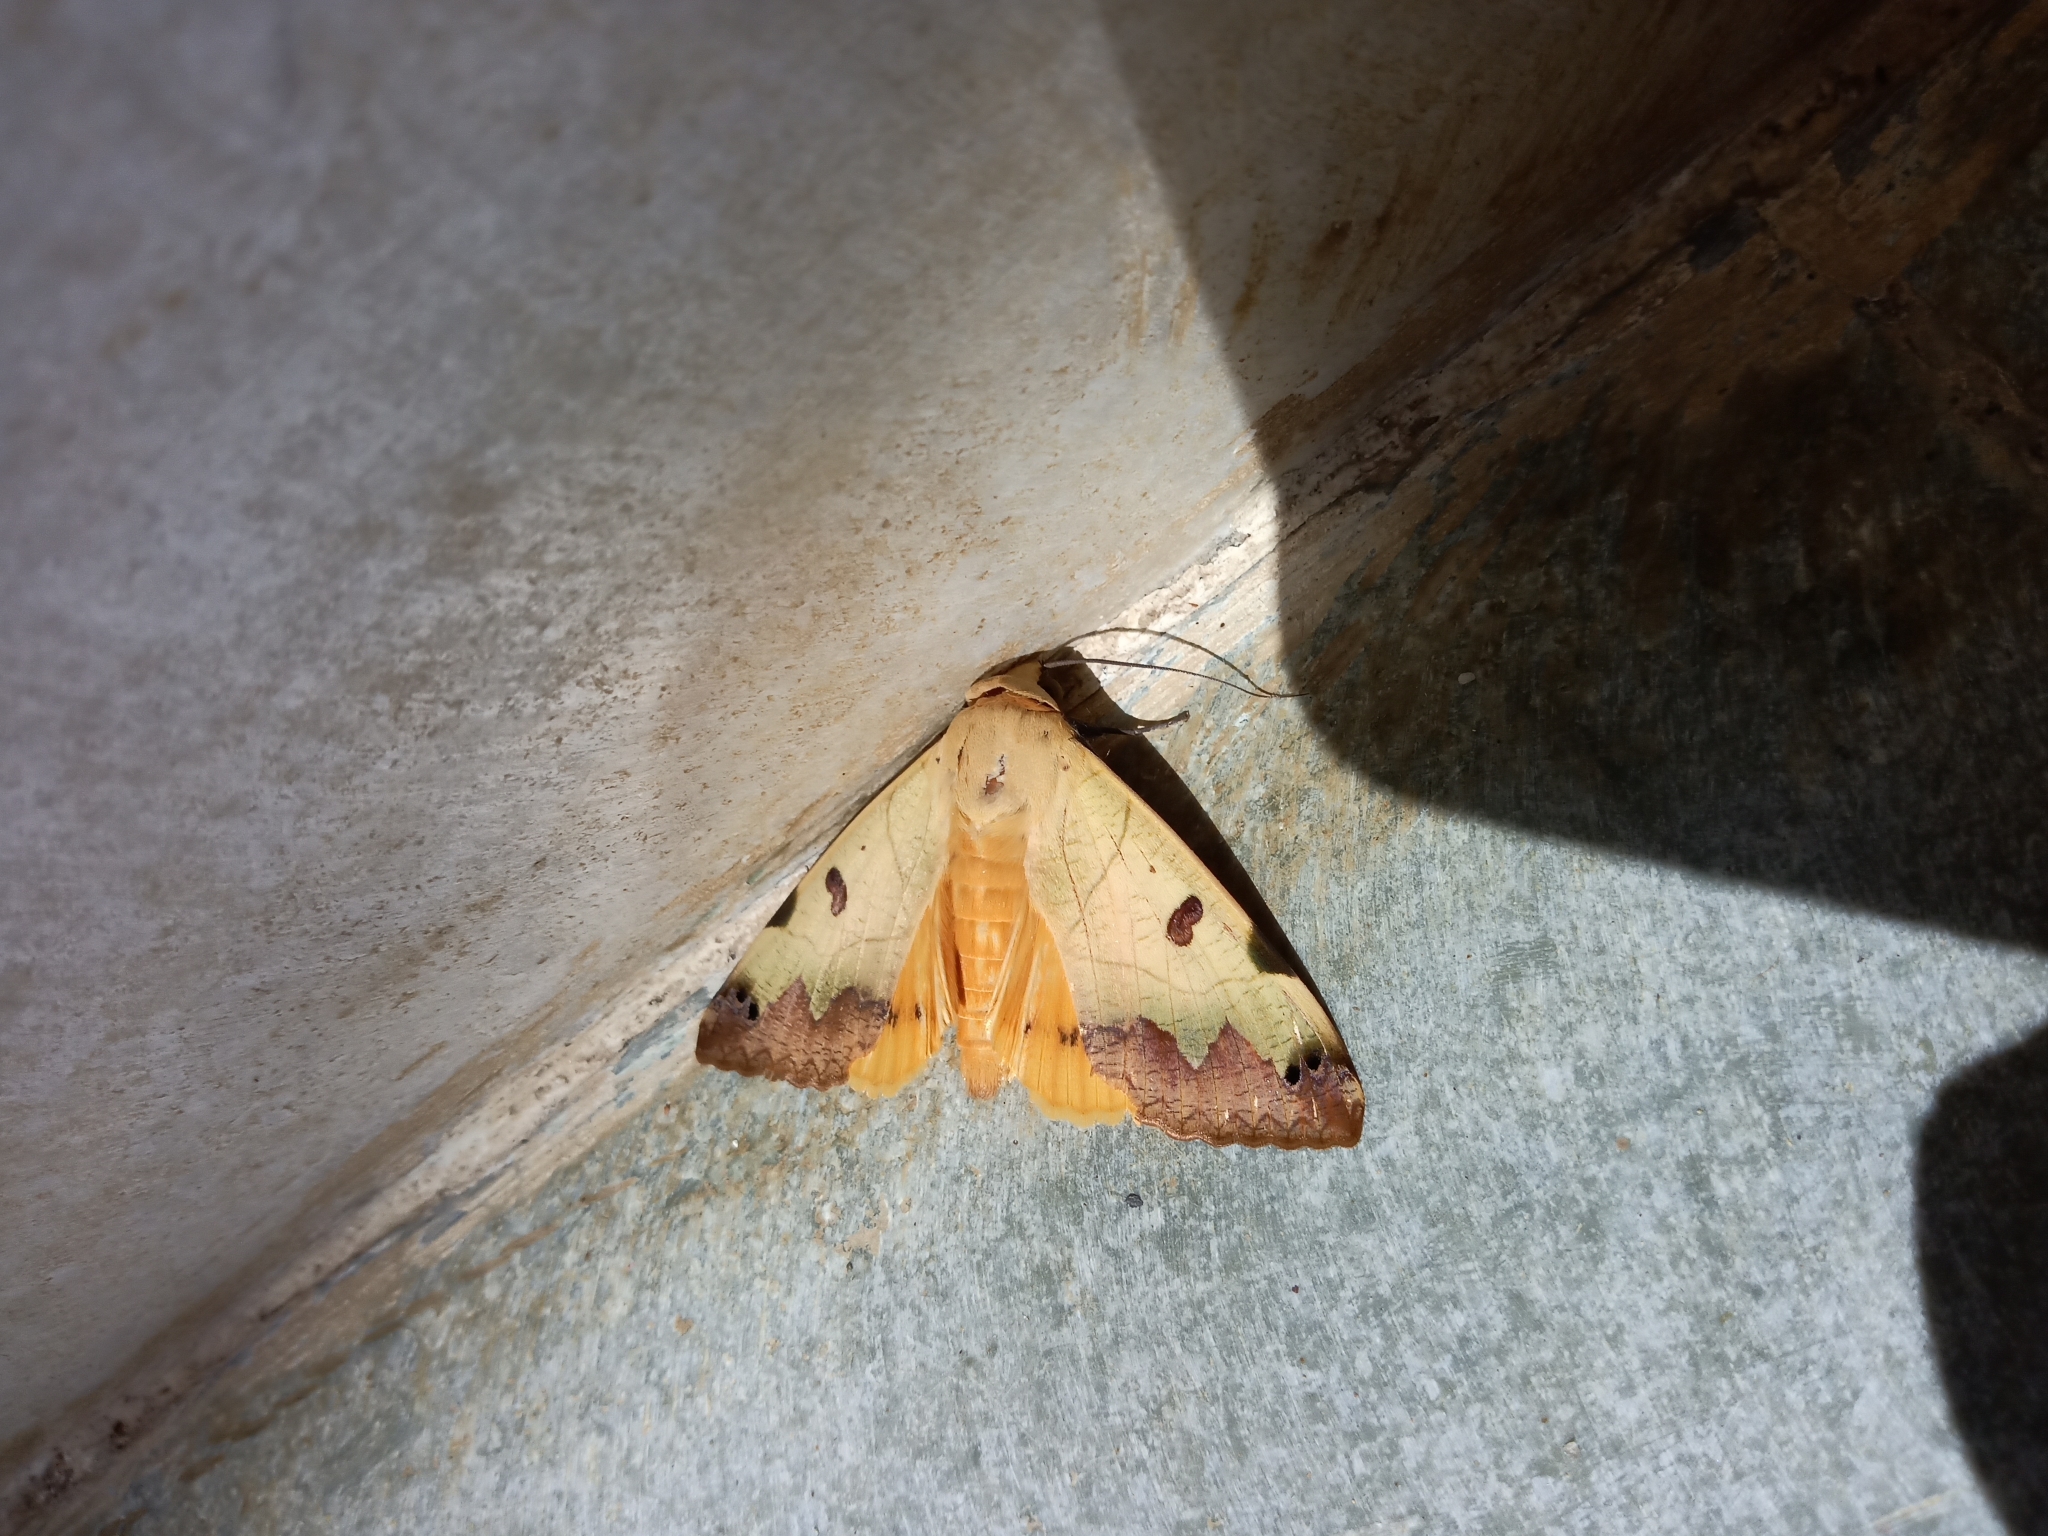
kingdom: Animalia
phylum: Arthropoda
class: Insecta
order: Lepidoptera
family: Erebidae
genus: Ophiusa
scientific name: Ophiusa tirhaca
